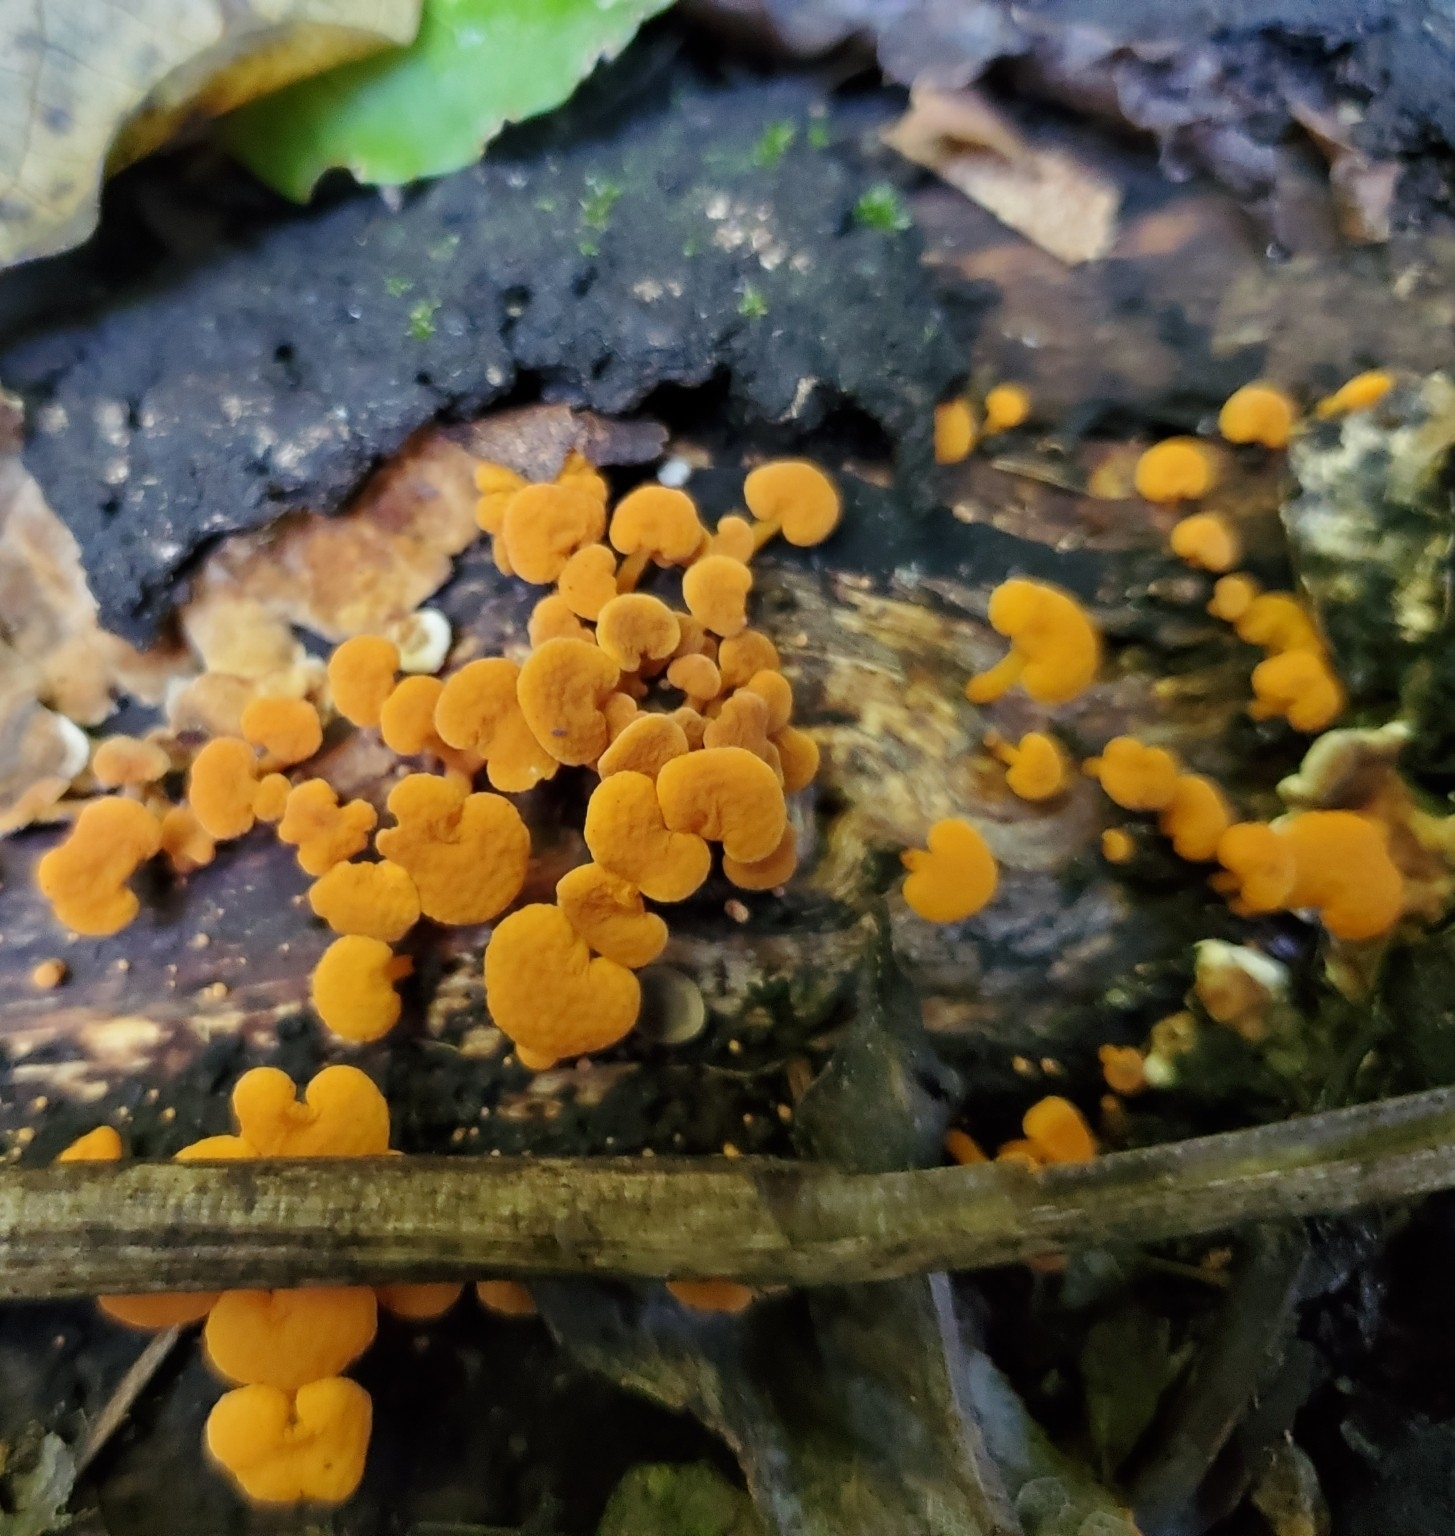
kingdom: Fungi
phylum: Basidiomycota
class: Agaricomycetes
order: Agaricales
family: Mycenaceae
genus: Favolaschia
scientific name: Favolaschia claudopus
